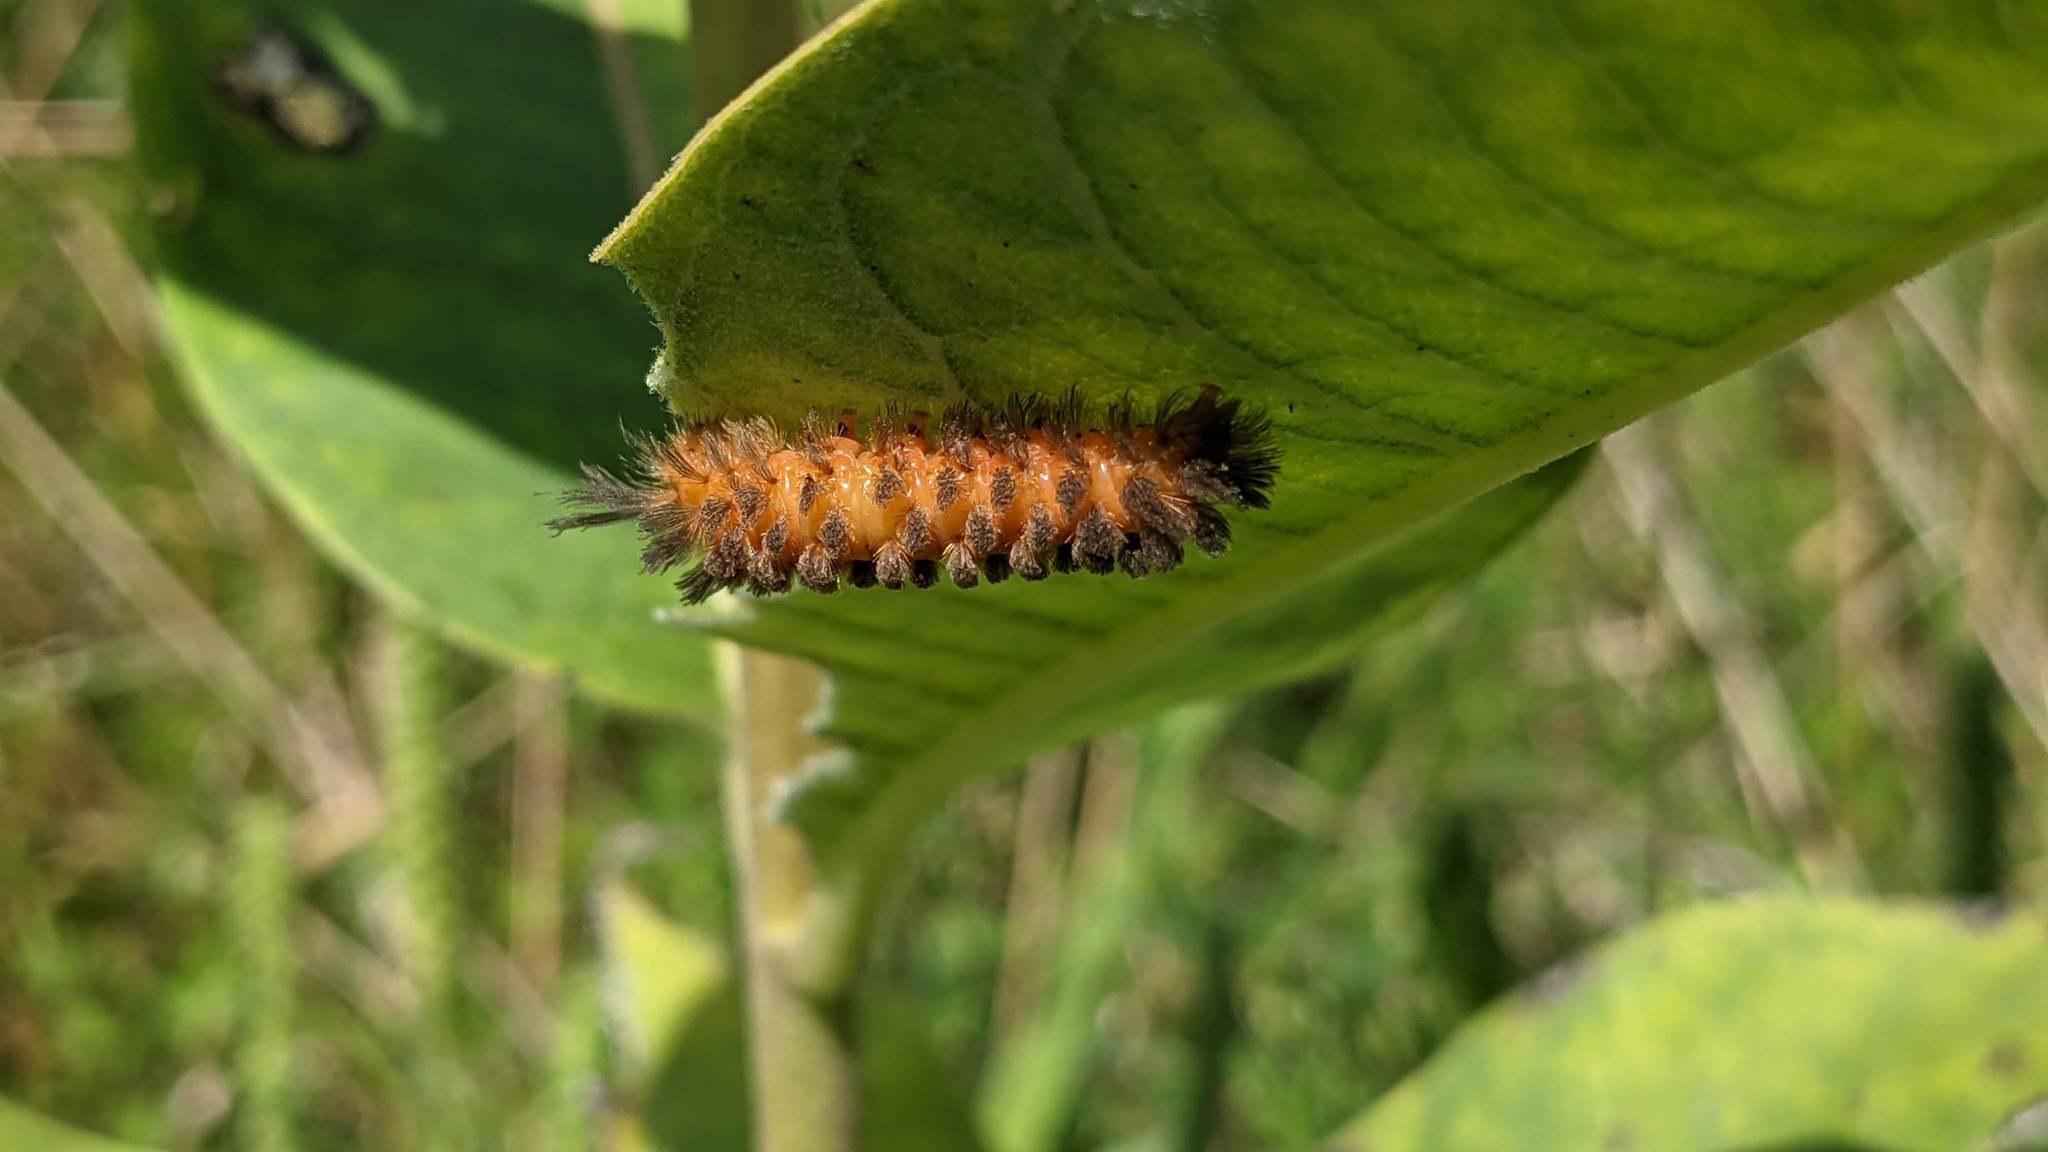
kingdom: Animalia
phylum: Arthropoda
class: Insecta
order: Lepidoptera
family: Erebidae
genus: Cycnia
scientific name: Cycnia collaris
